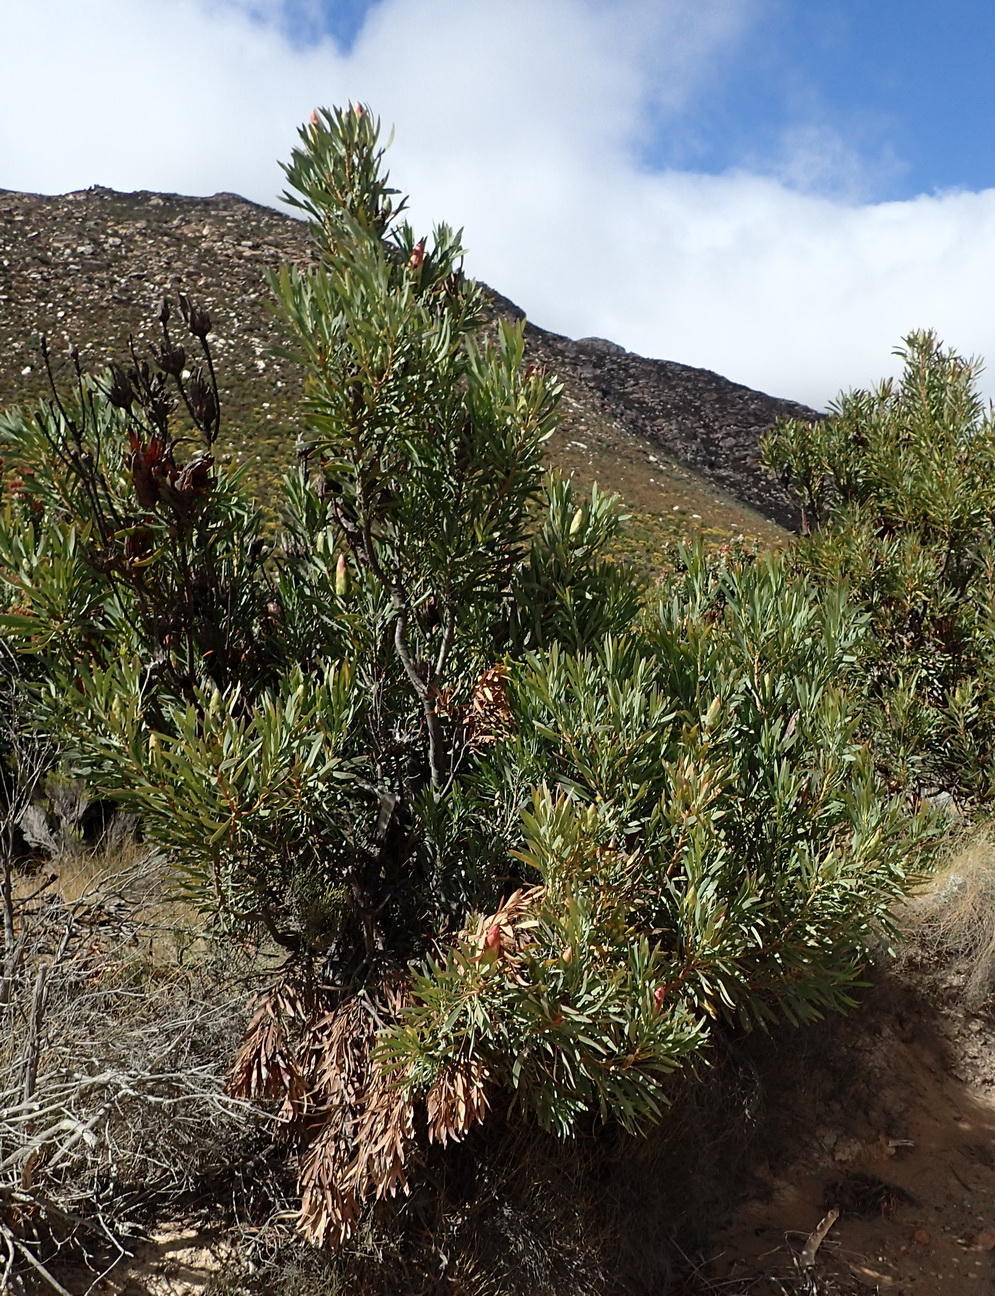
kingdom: Plantae
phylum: Tracheophyta
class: Magnoliopsida
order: Proteales
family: Proteaceae
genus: Protea
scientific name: Protea repens
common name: Sugarbush
